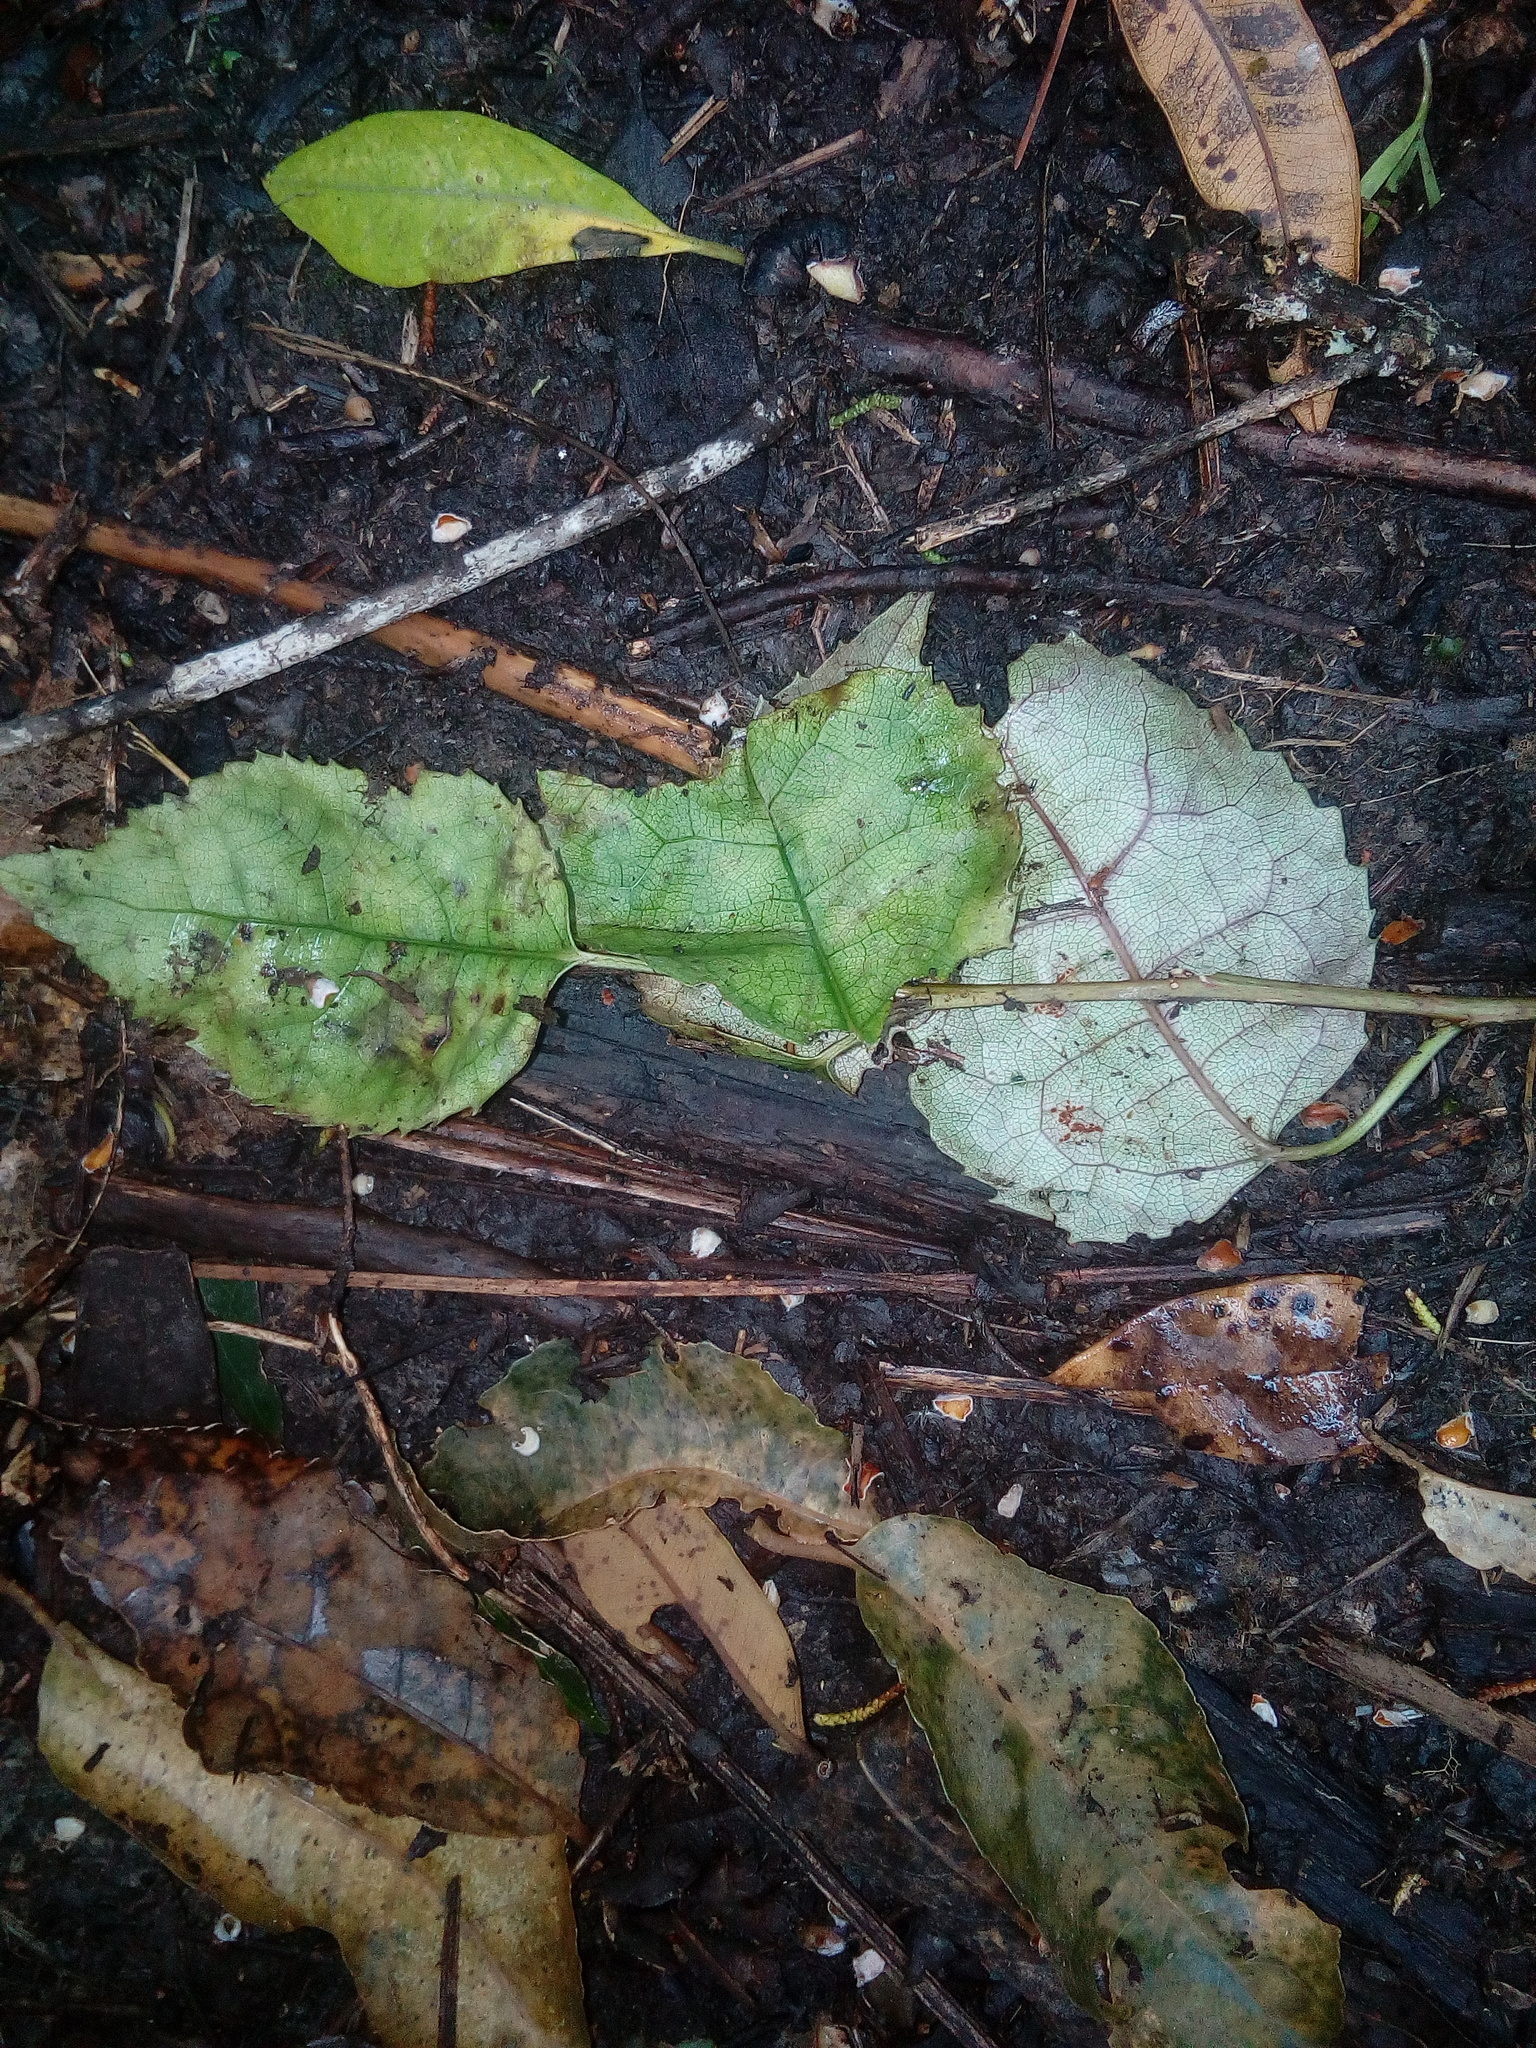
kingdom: Plantae
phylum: Tracheophyta
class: Magnoliopsida
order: Malvales
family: Malvaceae
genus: Hoheria
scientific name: Hoheria populnea
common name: Lacebark
